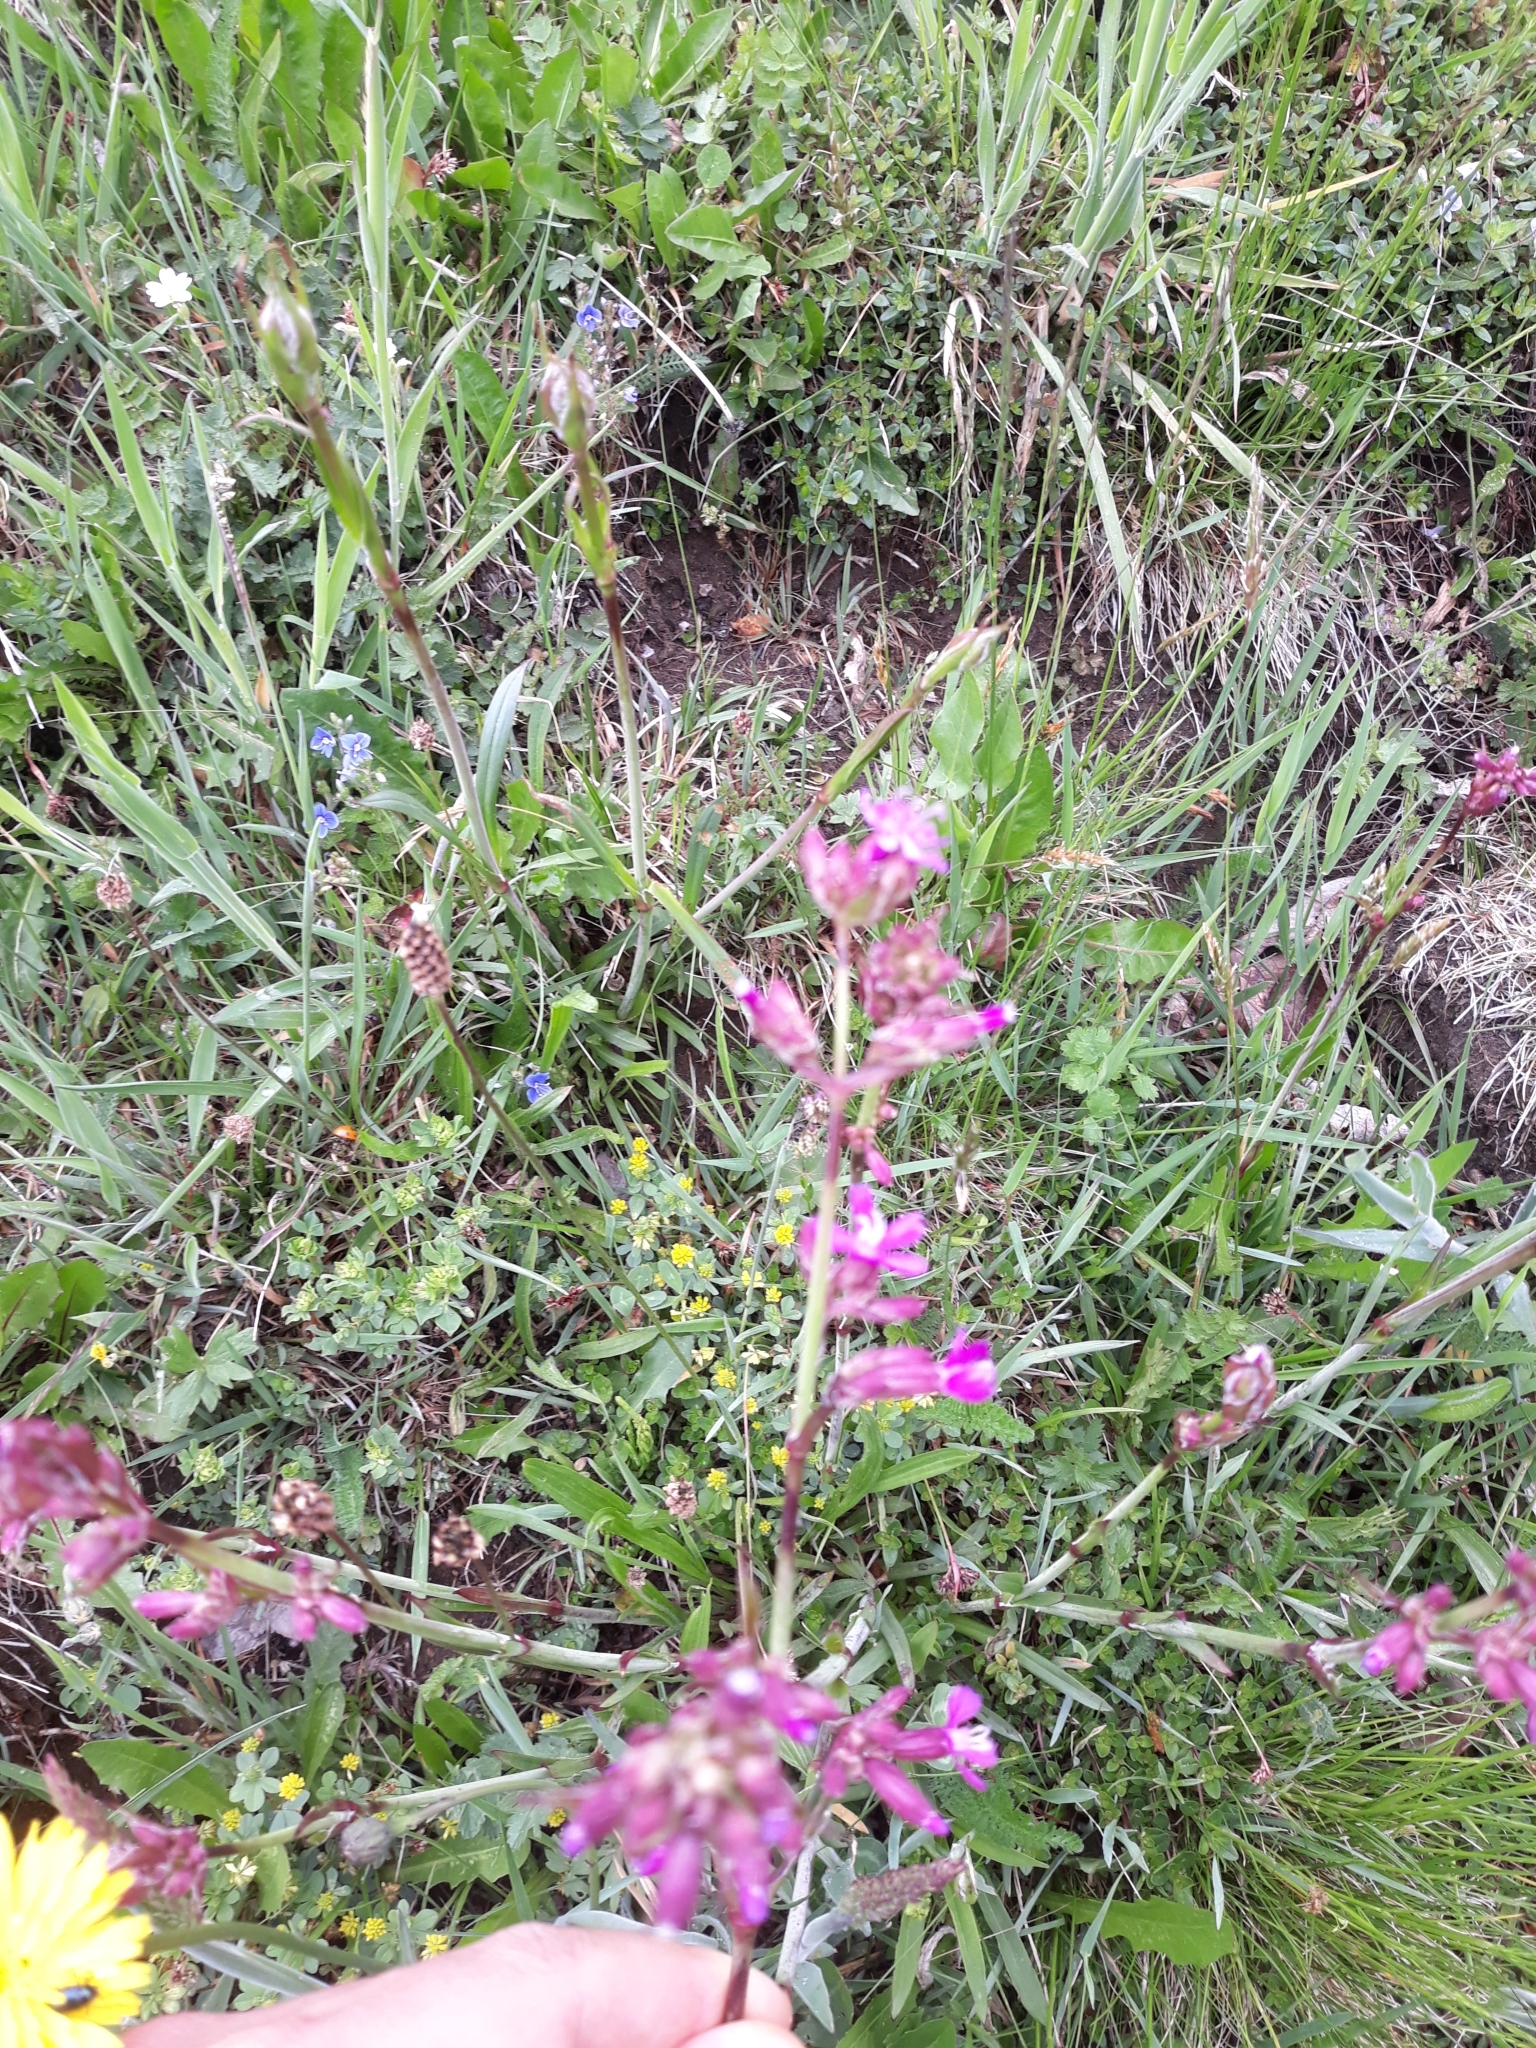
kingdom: Plantae
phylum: Tracheophyta
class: Magnoliopsida
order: Caryophyllales
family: Caryophyllaceae
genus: Viscaria
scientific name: Viscaria vulgaris
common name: Clammy campion
